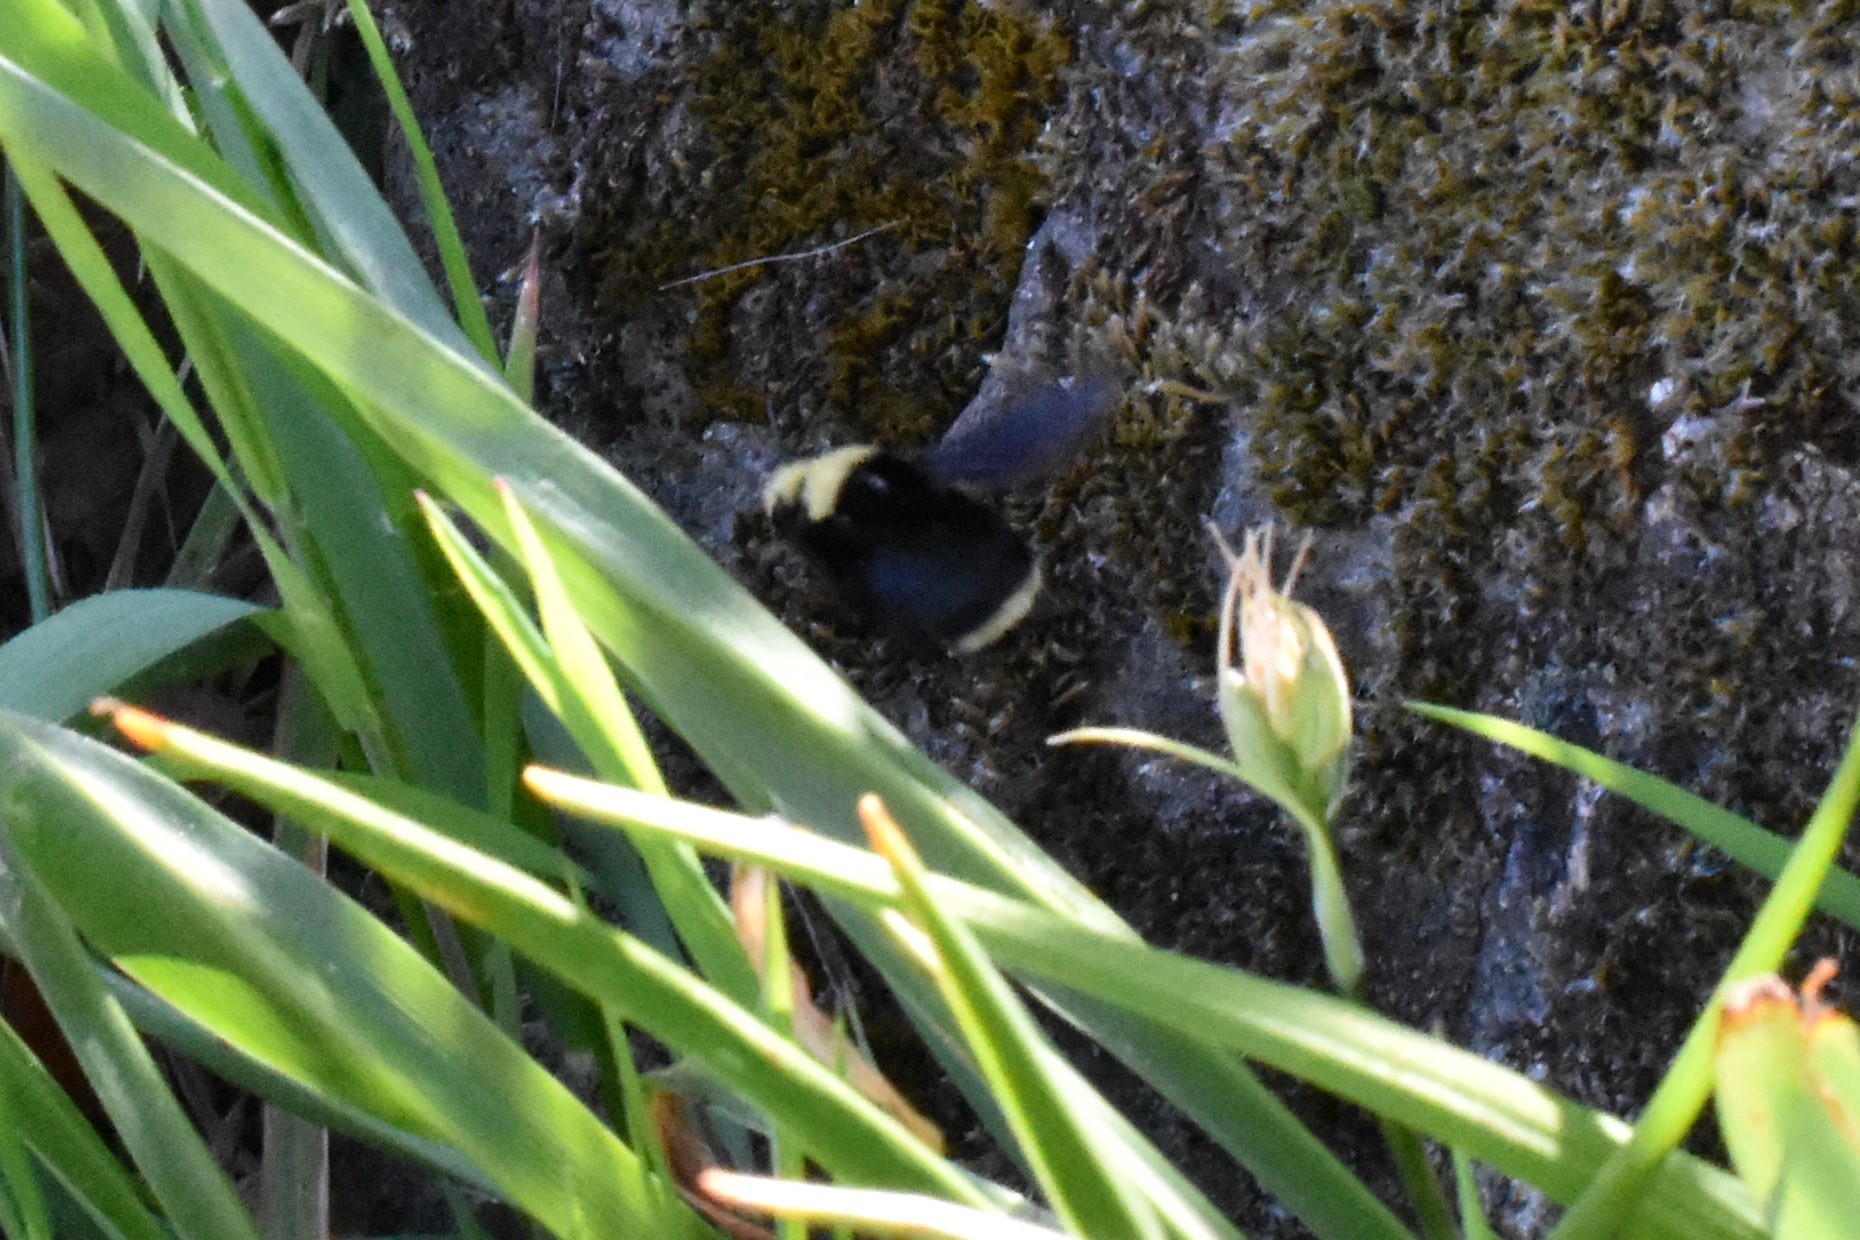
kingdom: Animalia
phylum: Arthropoda
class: Insecta
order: Hymenoptera
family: Apidae
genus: Bombus
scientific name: Bombus vosnesenskii
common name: Vosnesensky bumble bee
